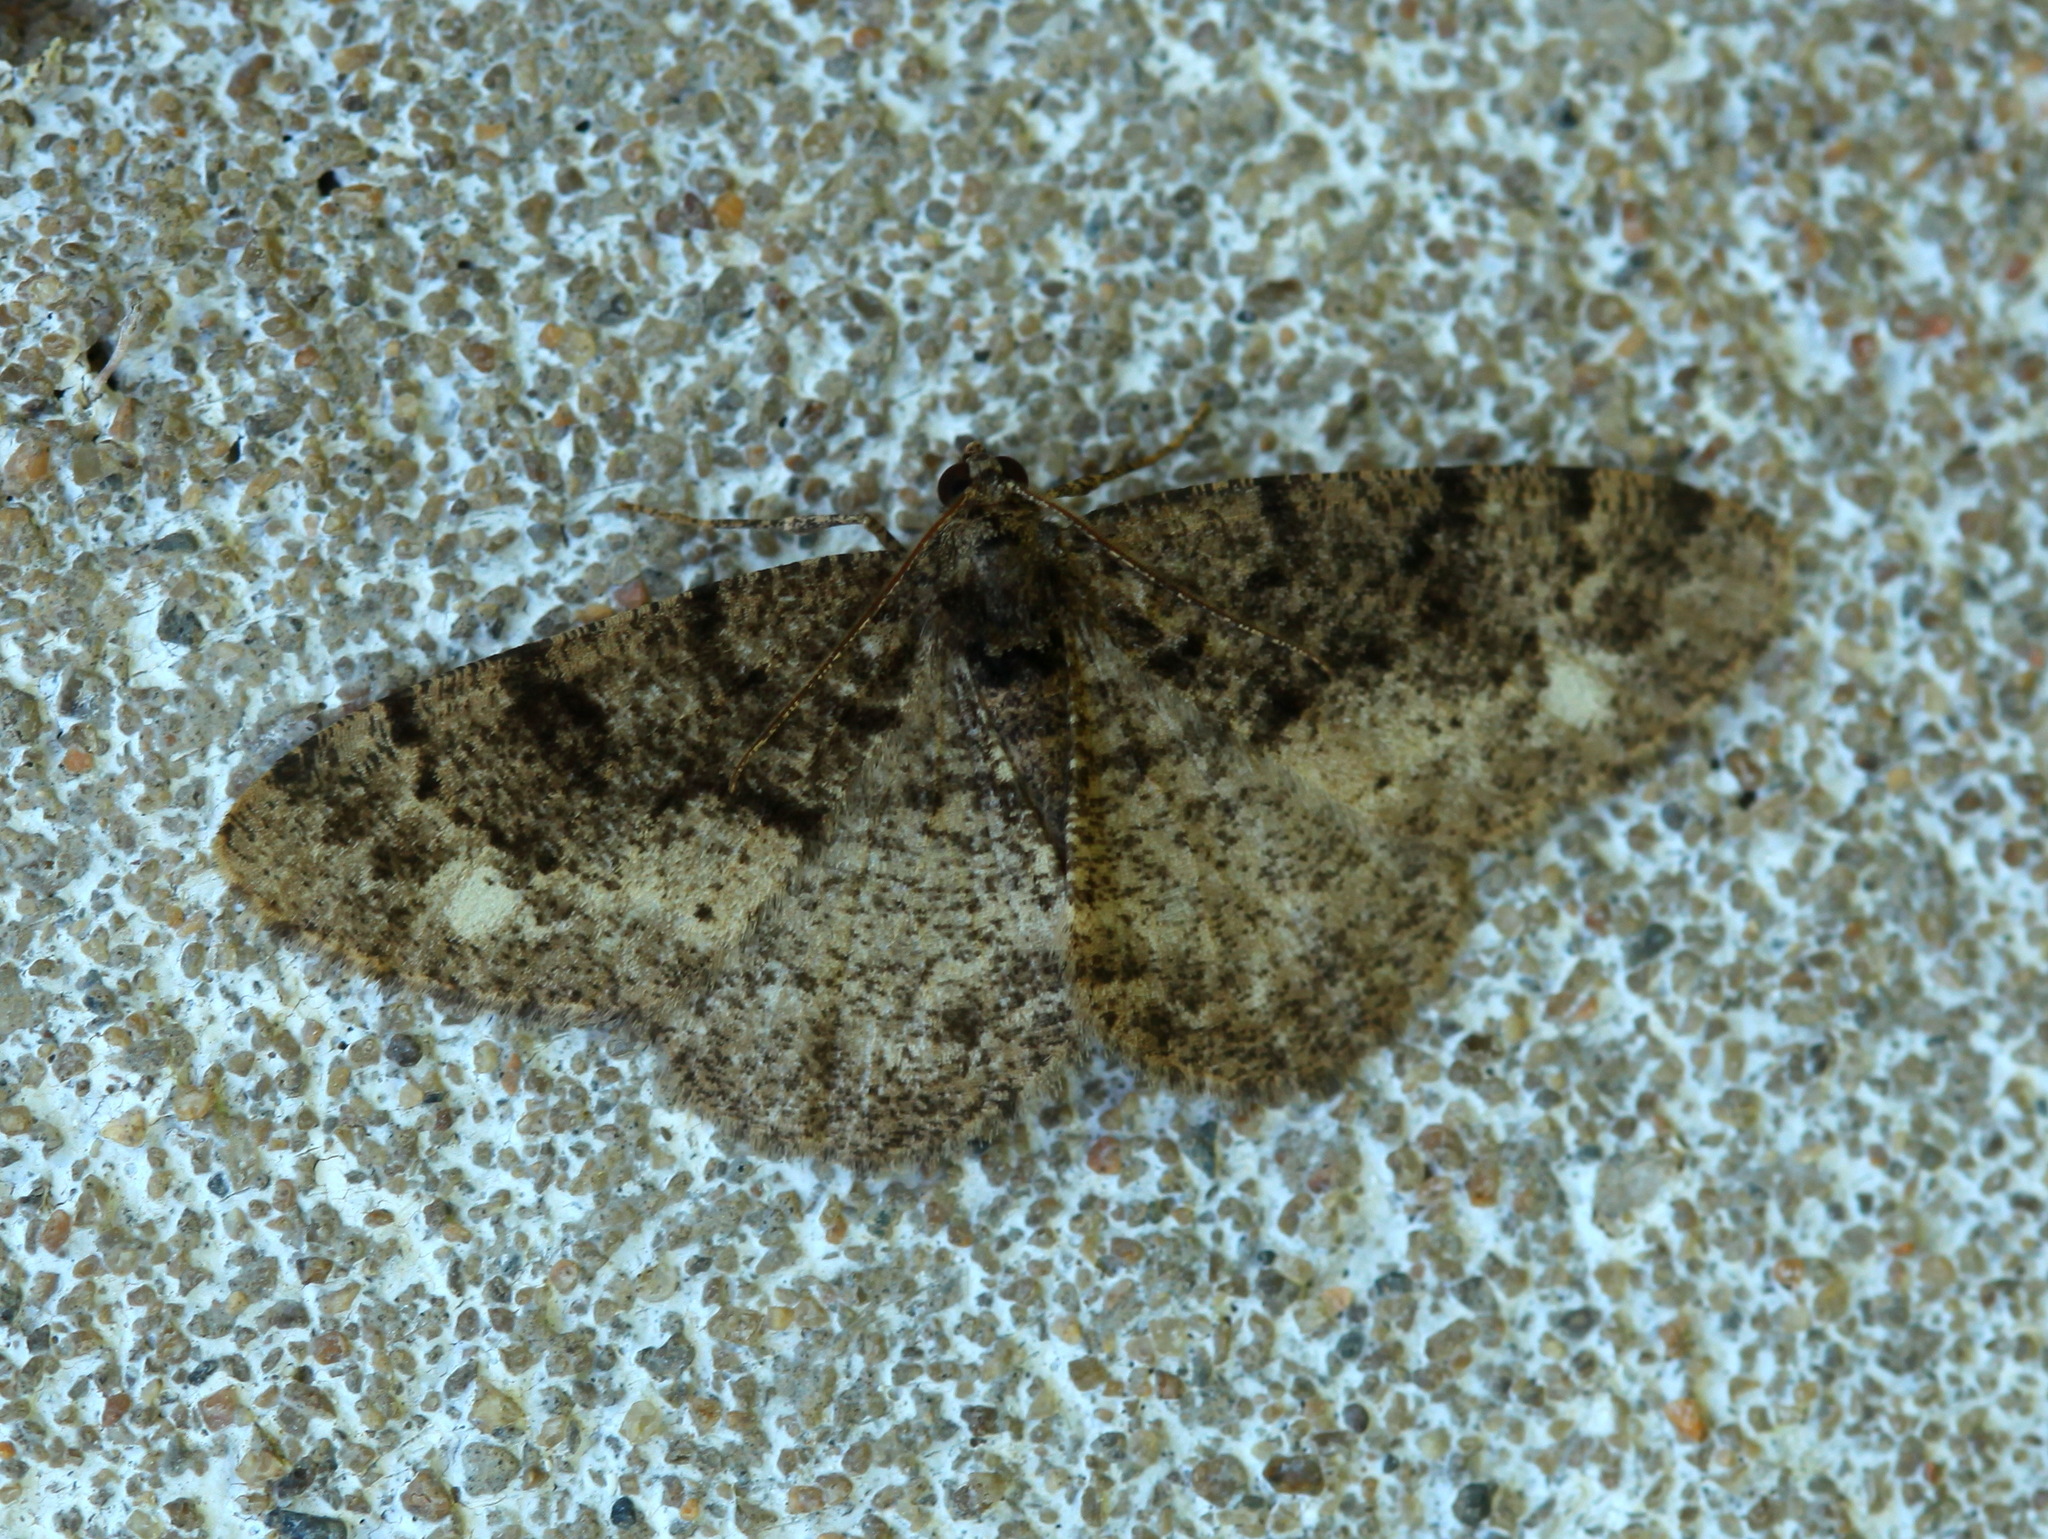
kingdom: Animalia
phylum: Arthropoda
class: Insecta
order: Lepidoptera
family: Geometridae
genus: Parectropis
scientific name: Parectropis similaria
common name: Brindled white-spot
